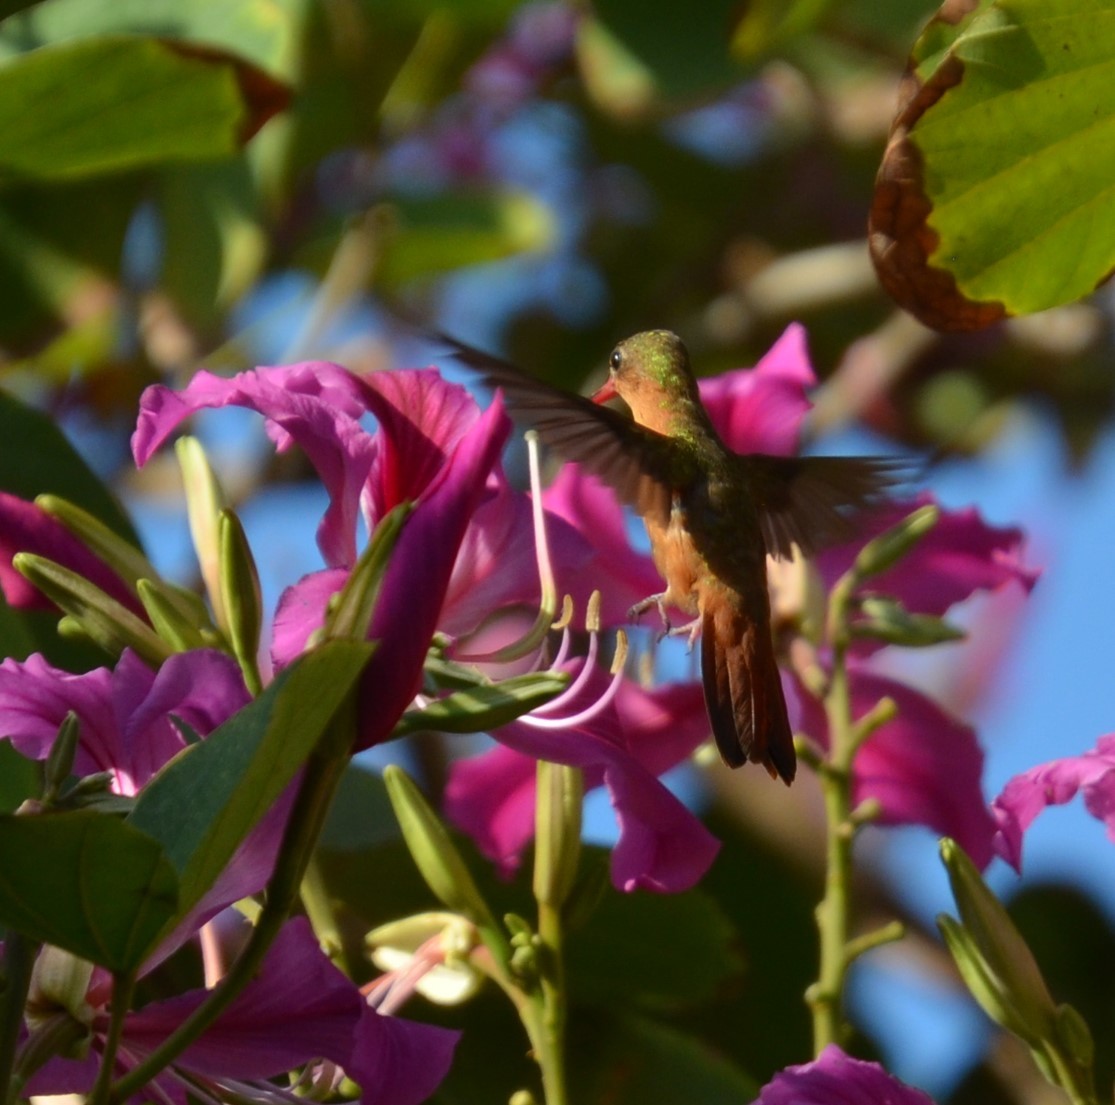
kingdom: Animalia
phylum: Chordata
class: Aves
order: Apodiformes
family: Trochilidae
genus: Amazilia
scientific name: Amazilia rutila
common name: Cinnamon hummingbird
